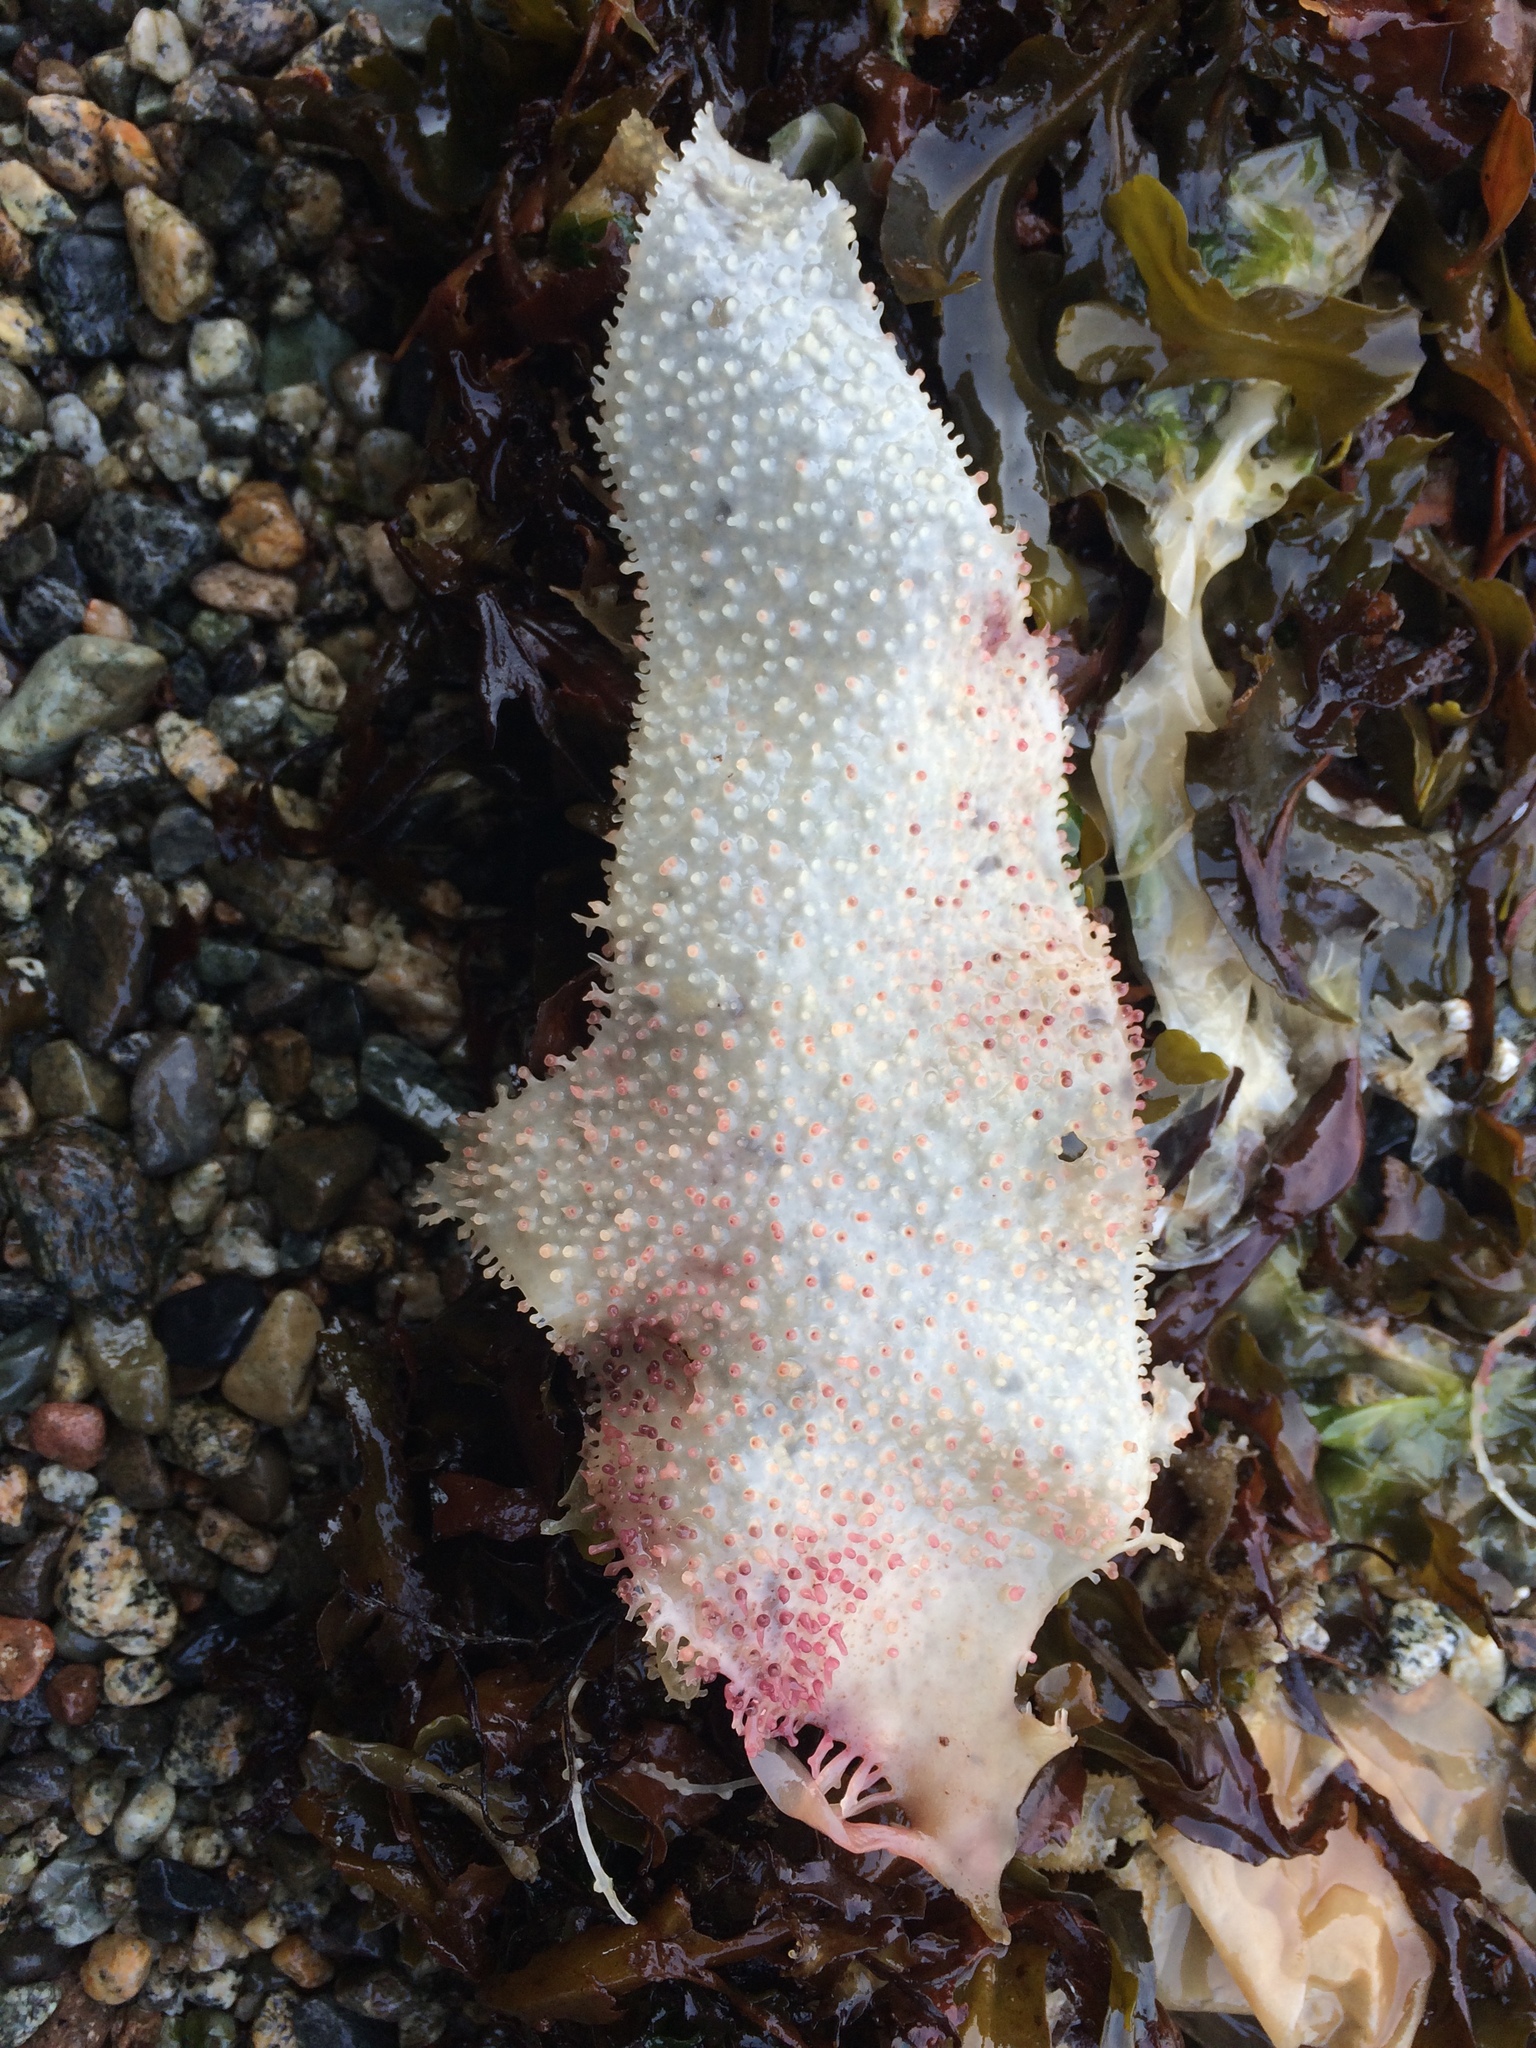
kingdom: Plantae
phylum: Rhodophyta
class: Florideophyceae
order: Gigartinales
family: Gigartinaceae
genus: Chondracanthus
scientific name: Chondracanthus exasperatus
